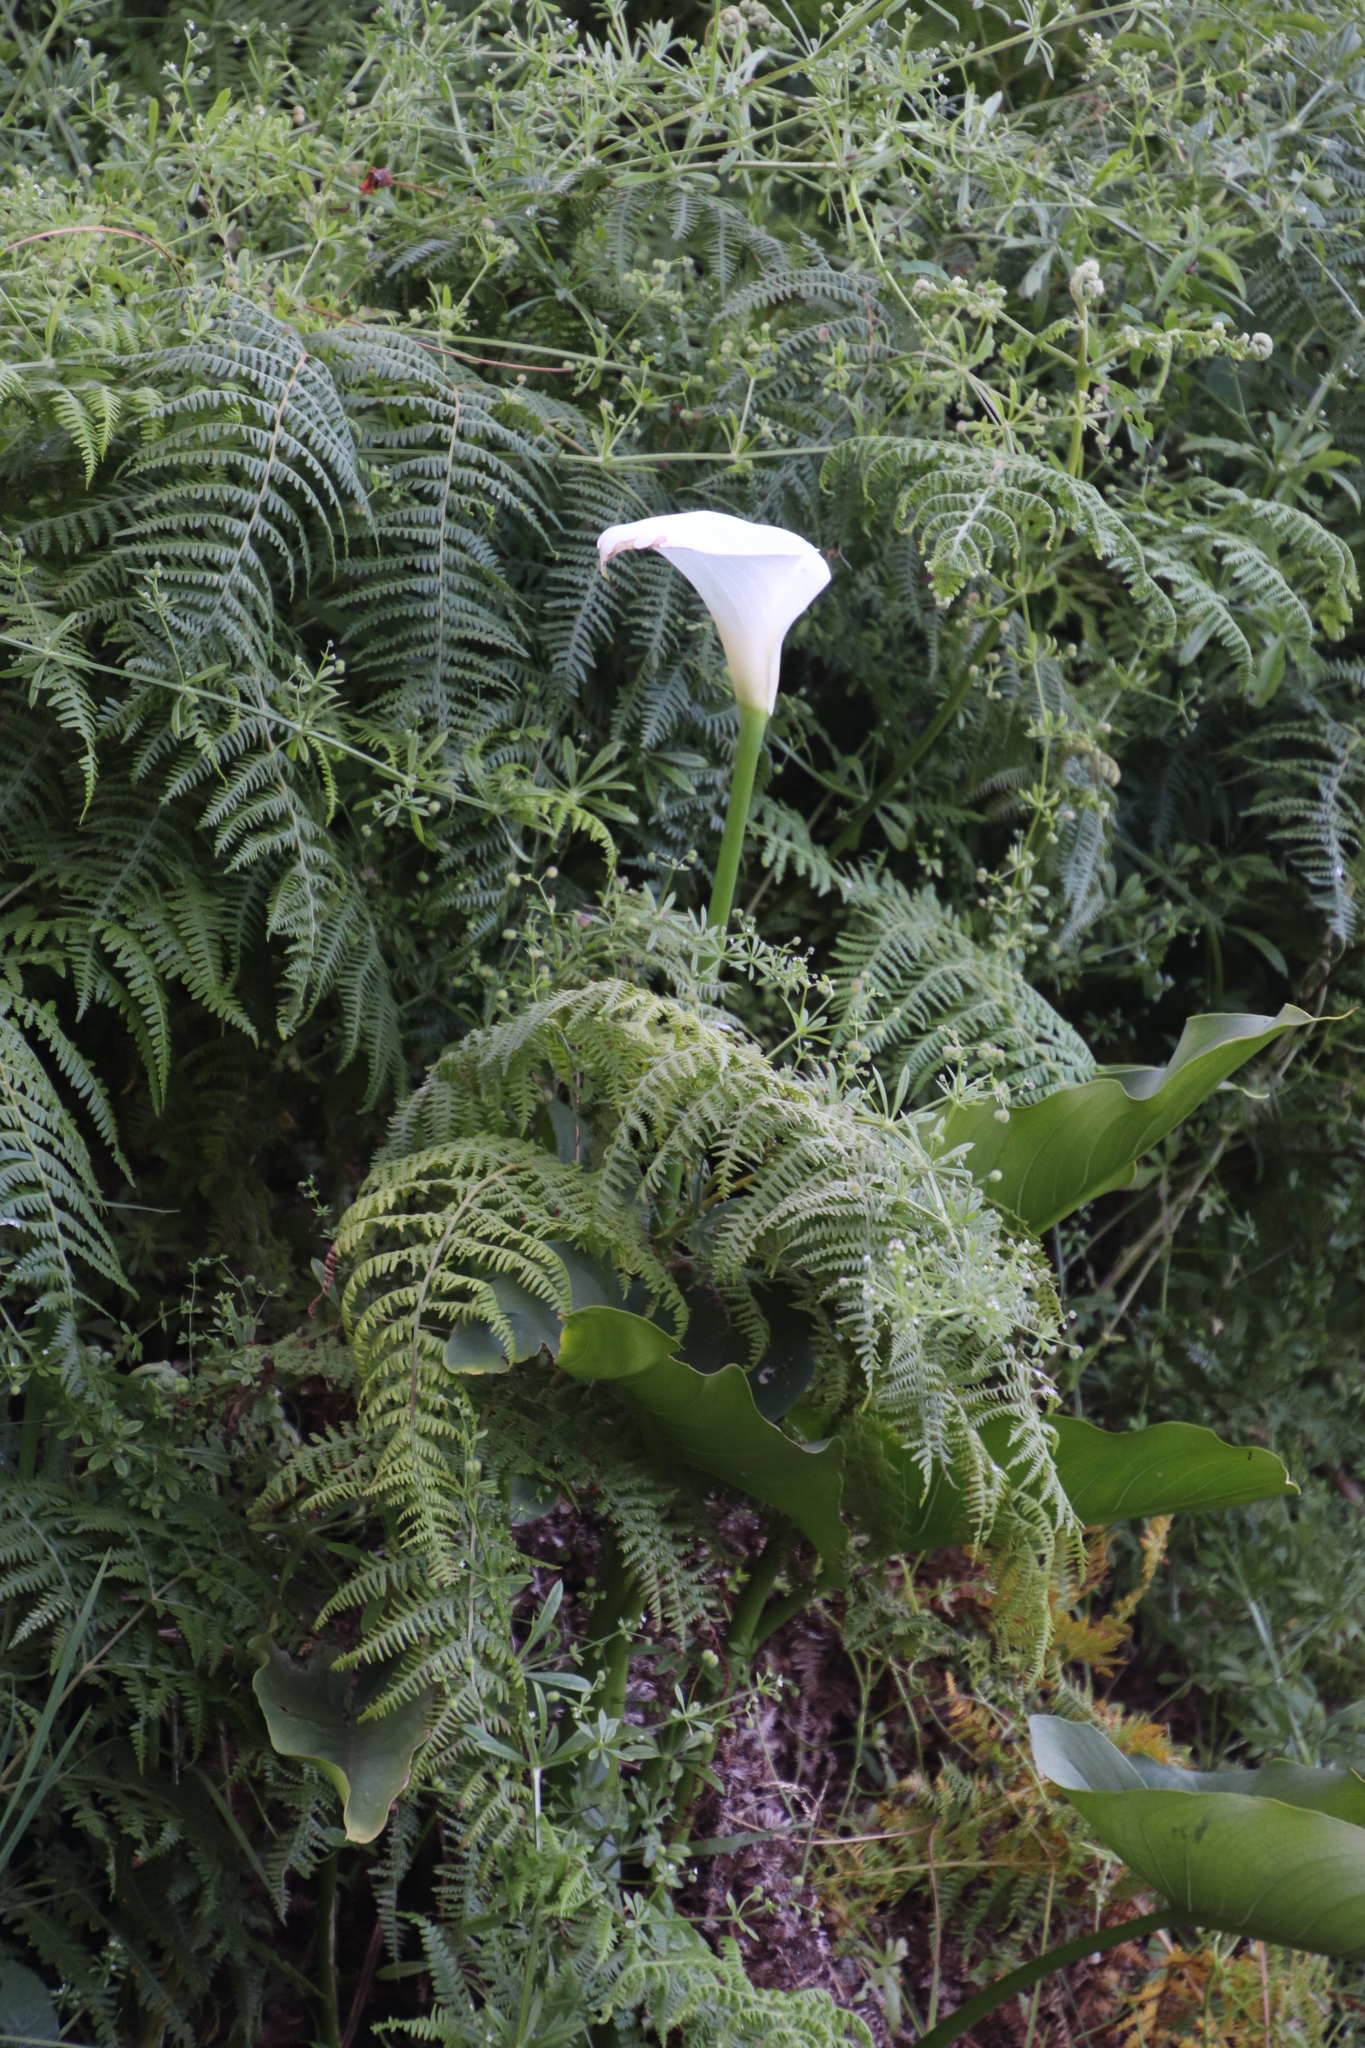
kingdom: Plantae
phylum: Tracheophyta
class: Liliopsida
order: Alismatales
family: Araceae
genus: Zantedeschia
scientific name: Zantedeschia aethiopica
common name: Altar-lily
